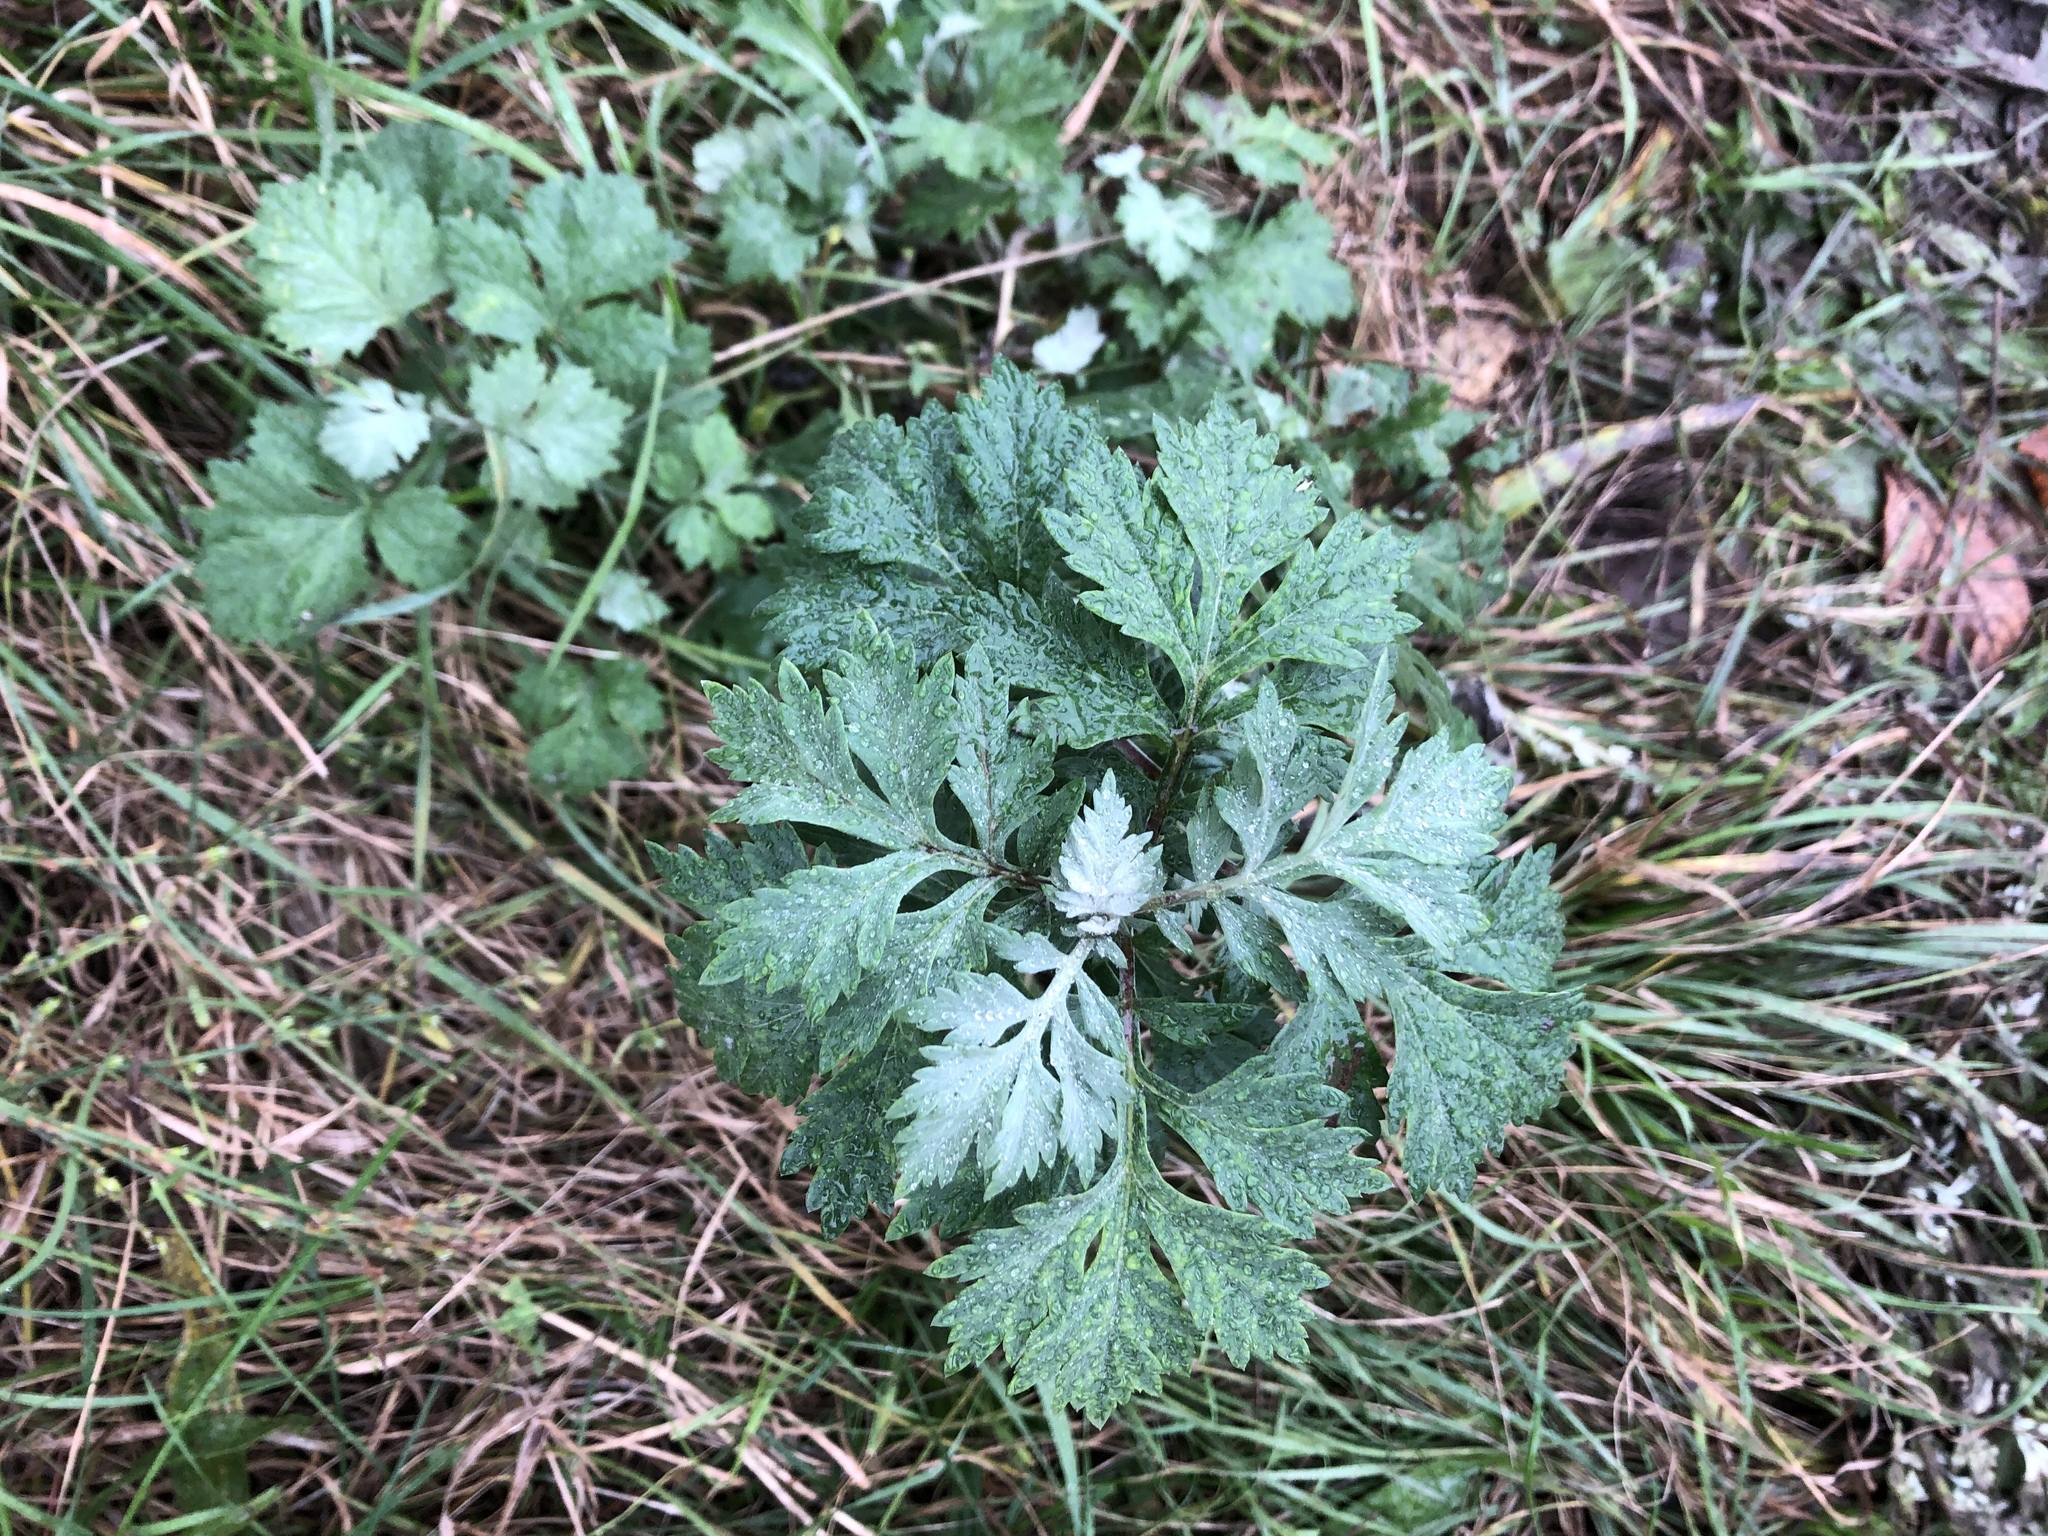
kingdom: Plantae
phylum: Tracheophyta
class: Magnoliopsida
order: Asterales
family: Asteraceae
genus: Artemisia
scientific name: Artemisia vulgaris
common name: Mugwort
